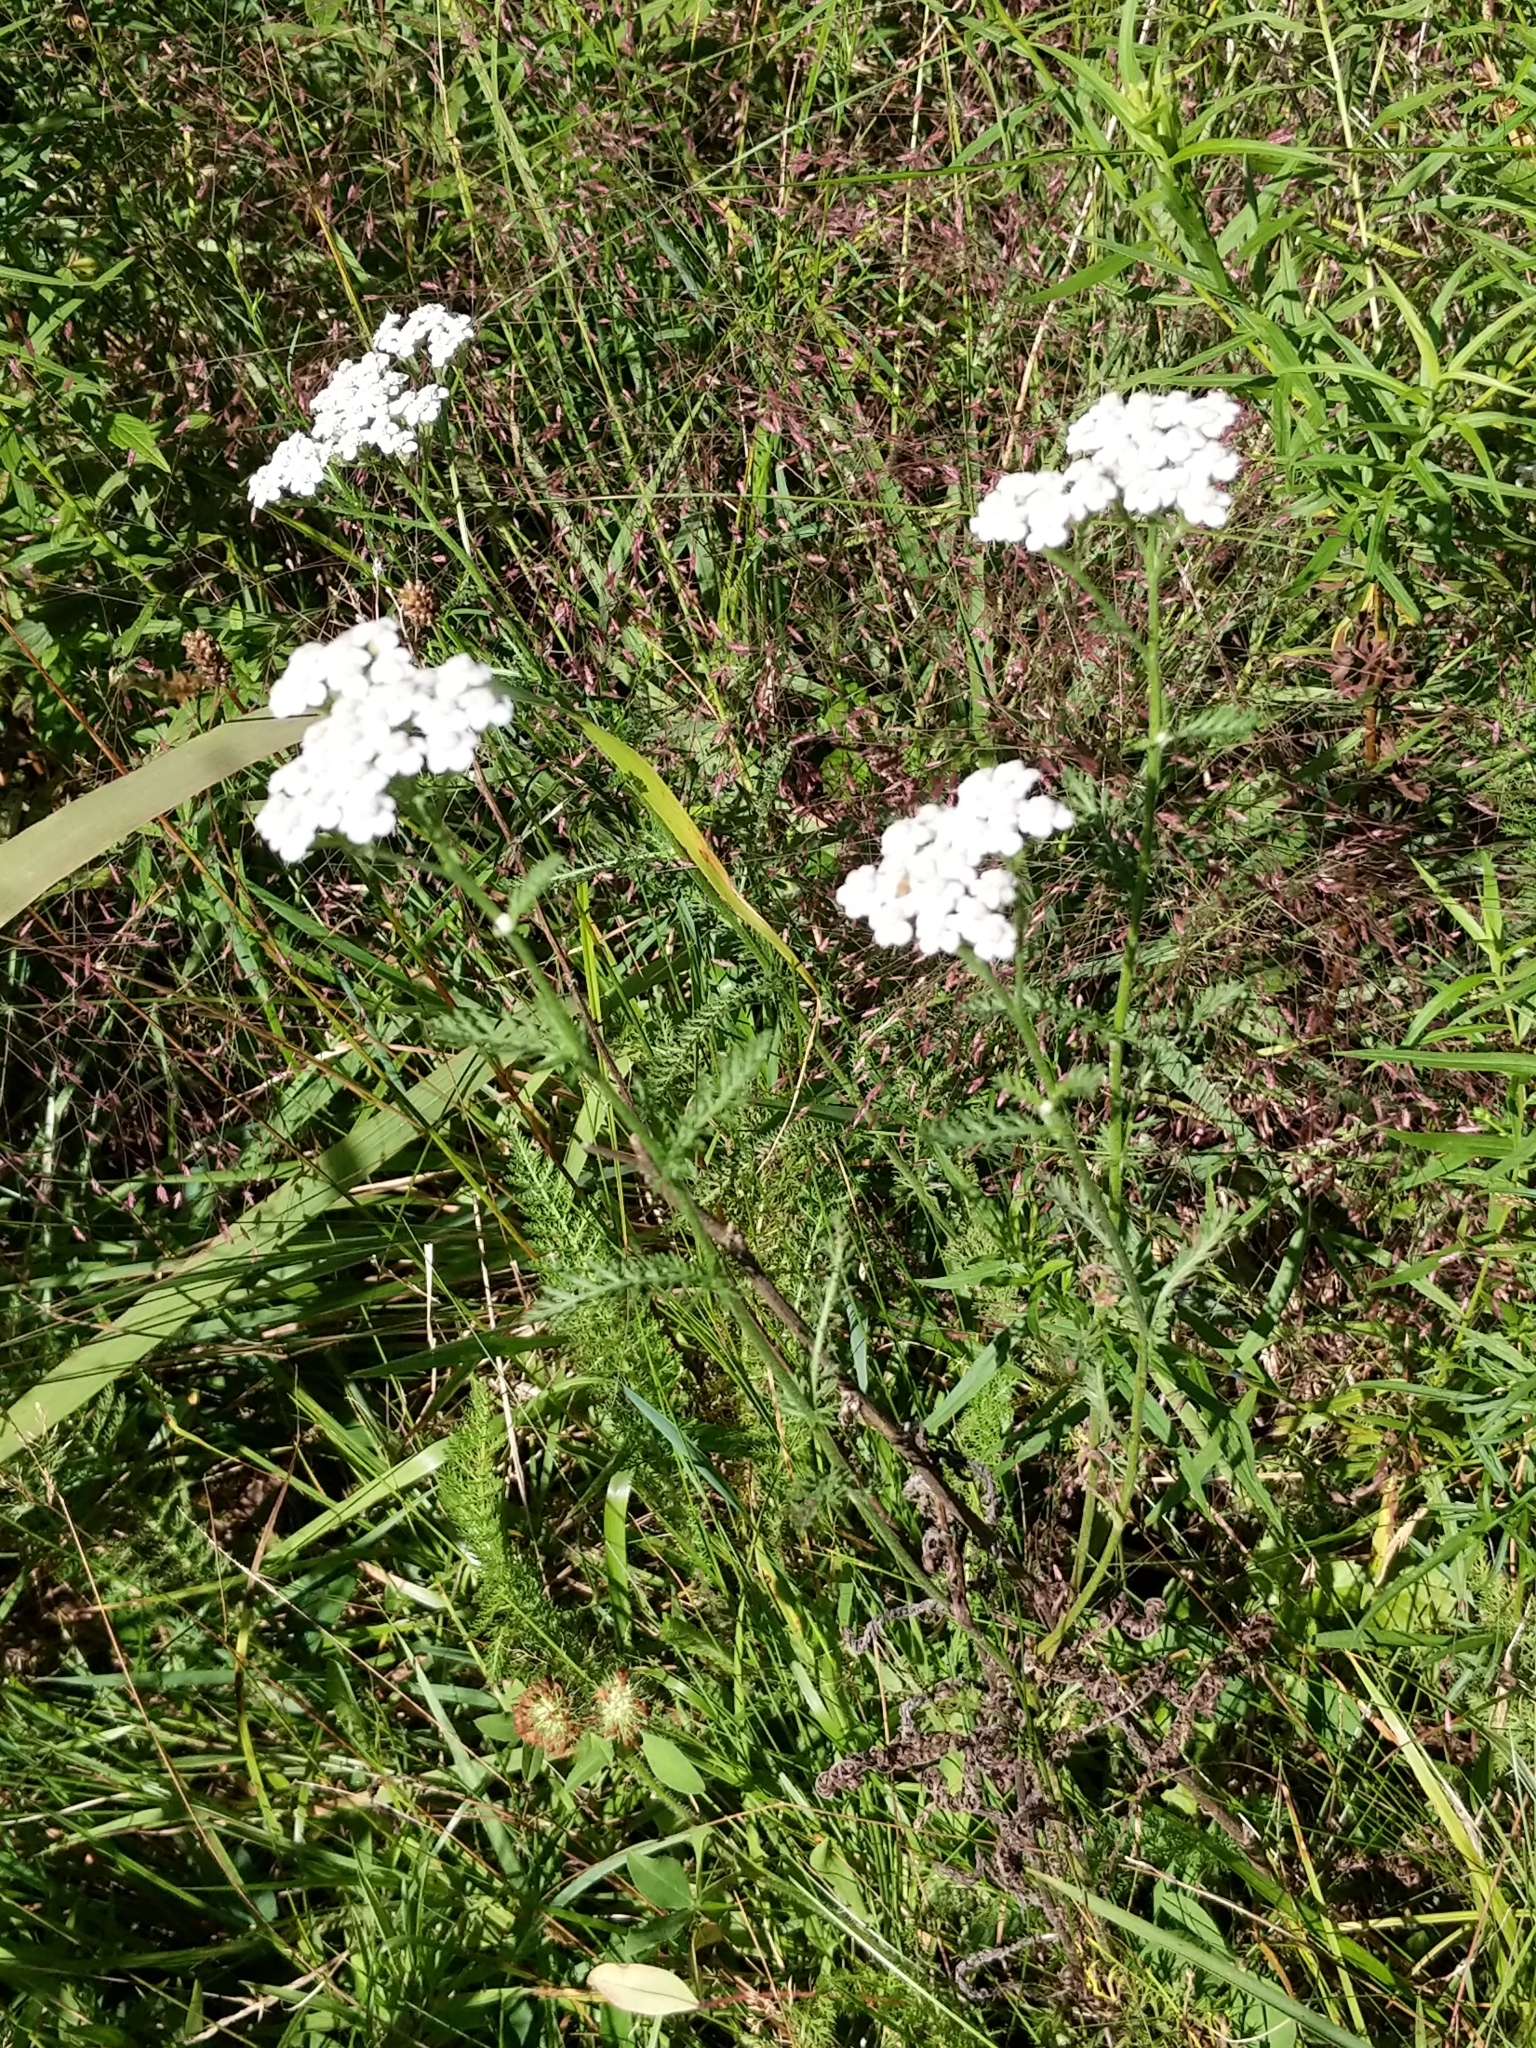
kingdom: Plantae
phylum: Tracheophyta
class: Magnoliopsida
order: Asterales
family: Asteraceae
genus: Achillea
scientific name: Achillea millefolium
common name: Yarrow
